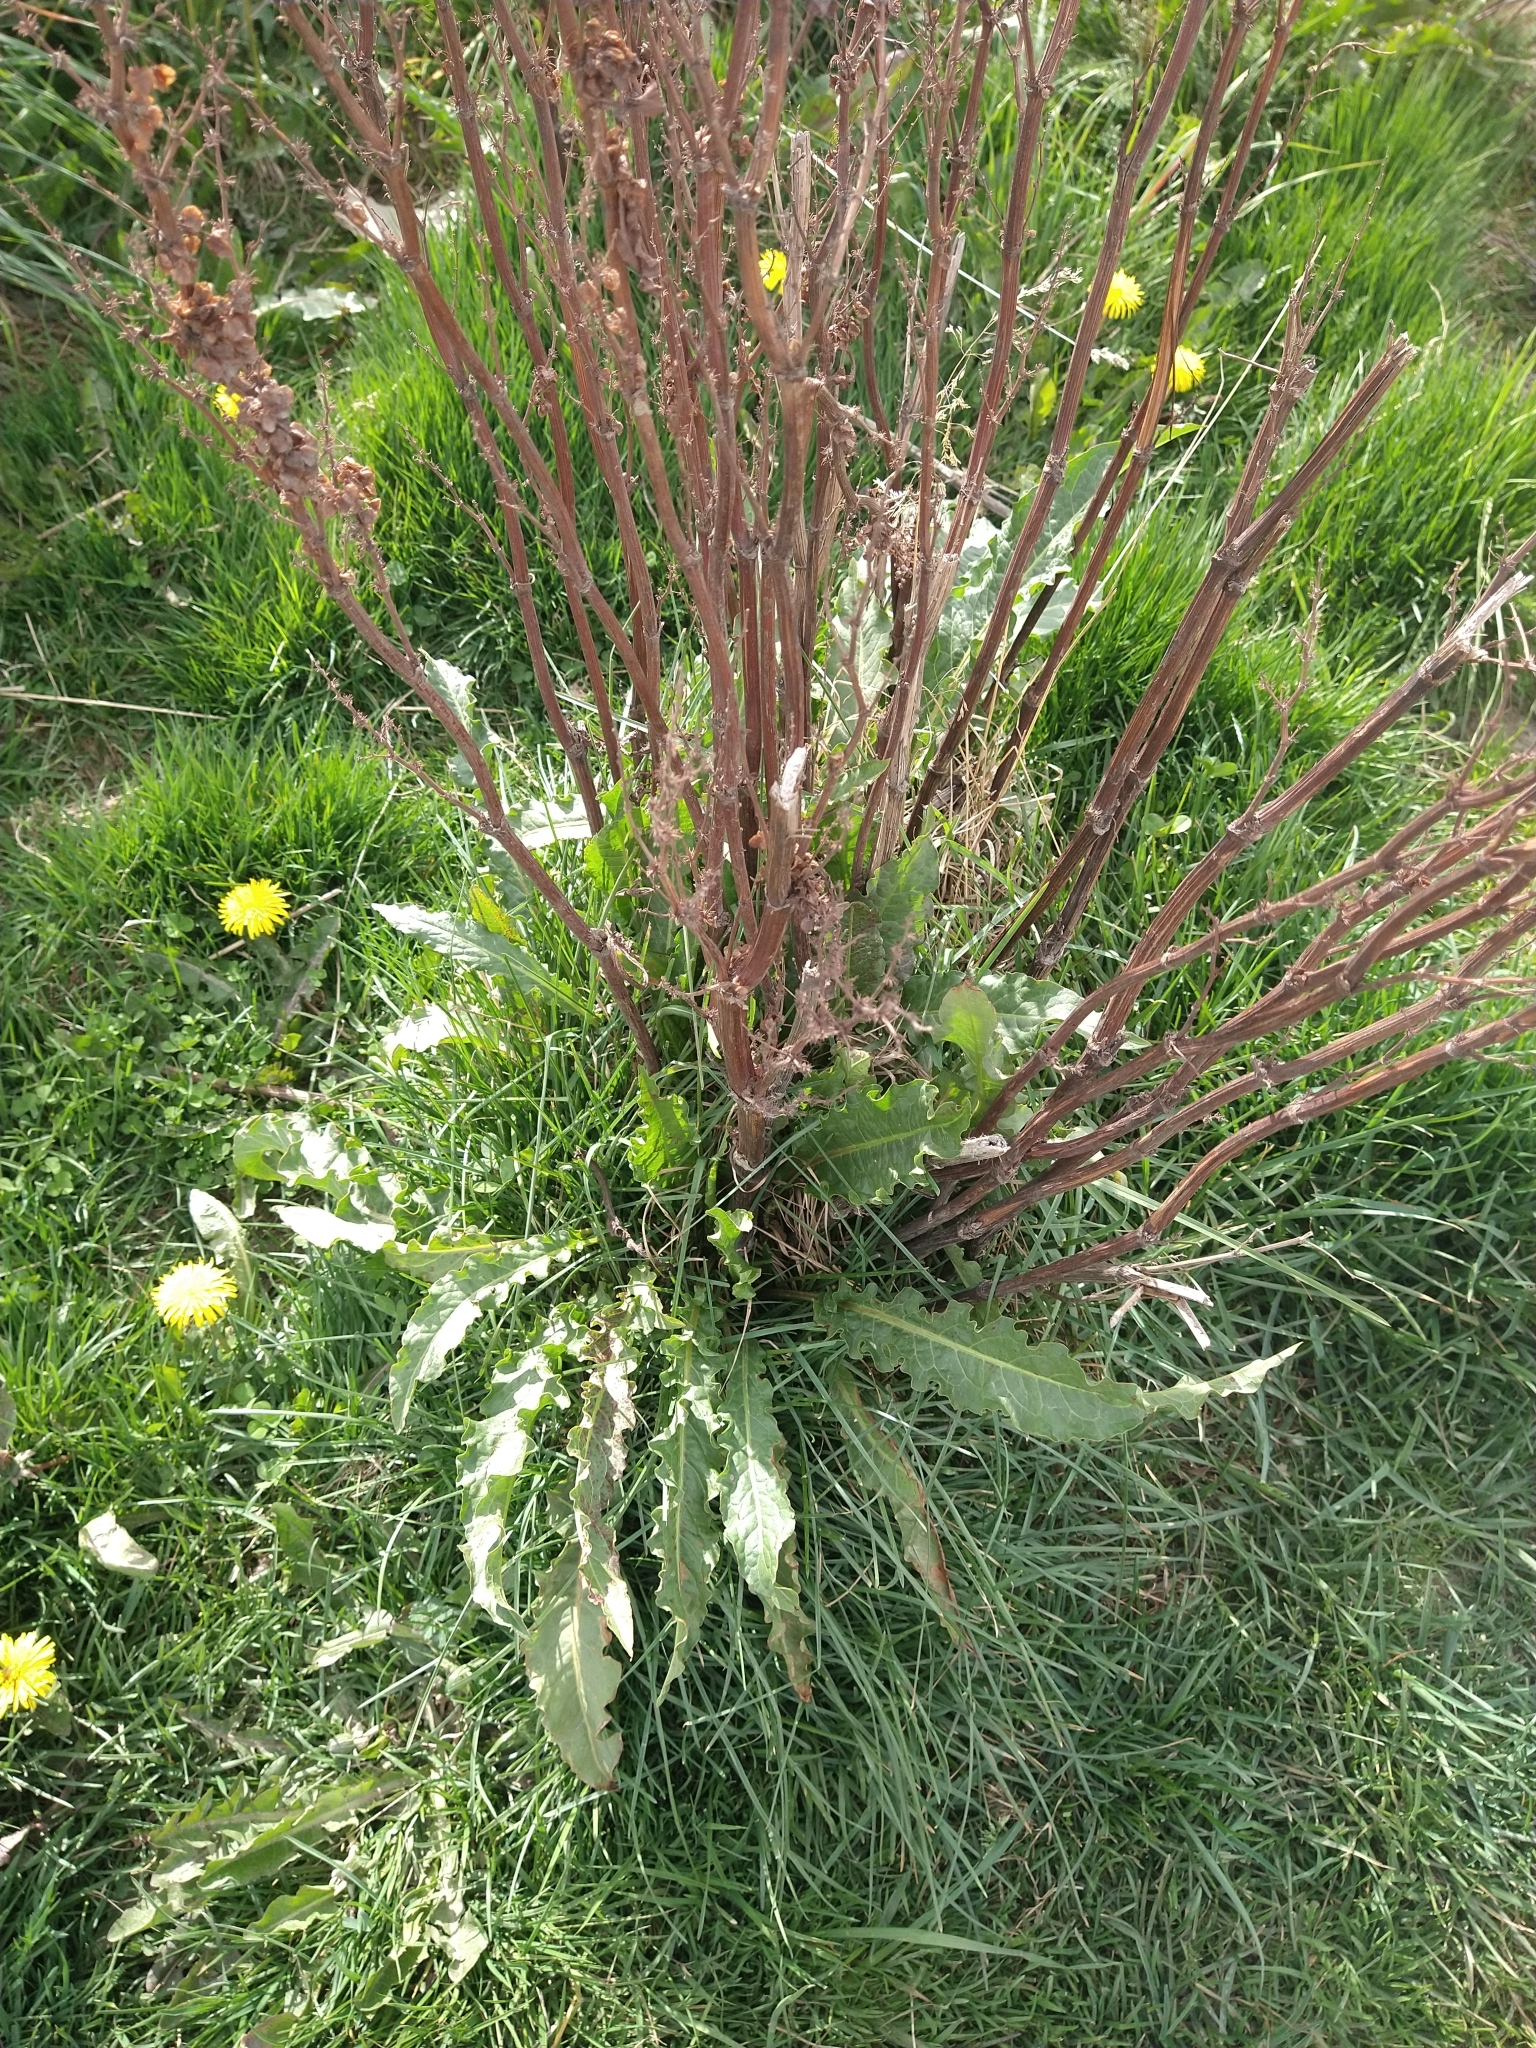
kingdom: Plantae
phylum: Tracheophyta
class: Magnoliopsida
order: Caryophyllales
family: Polygonaceae
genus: Rumex
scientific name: Rumex crispus
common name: Curled dock
